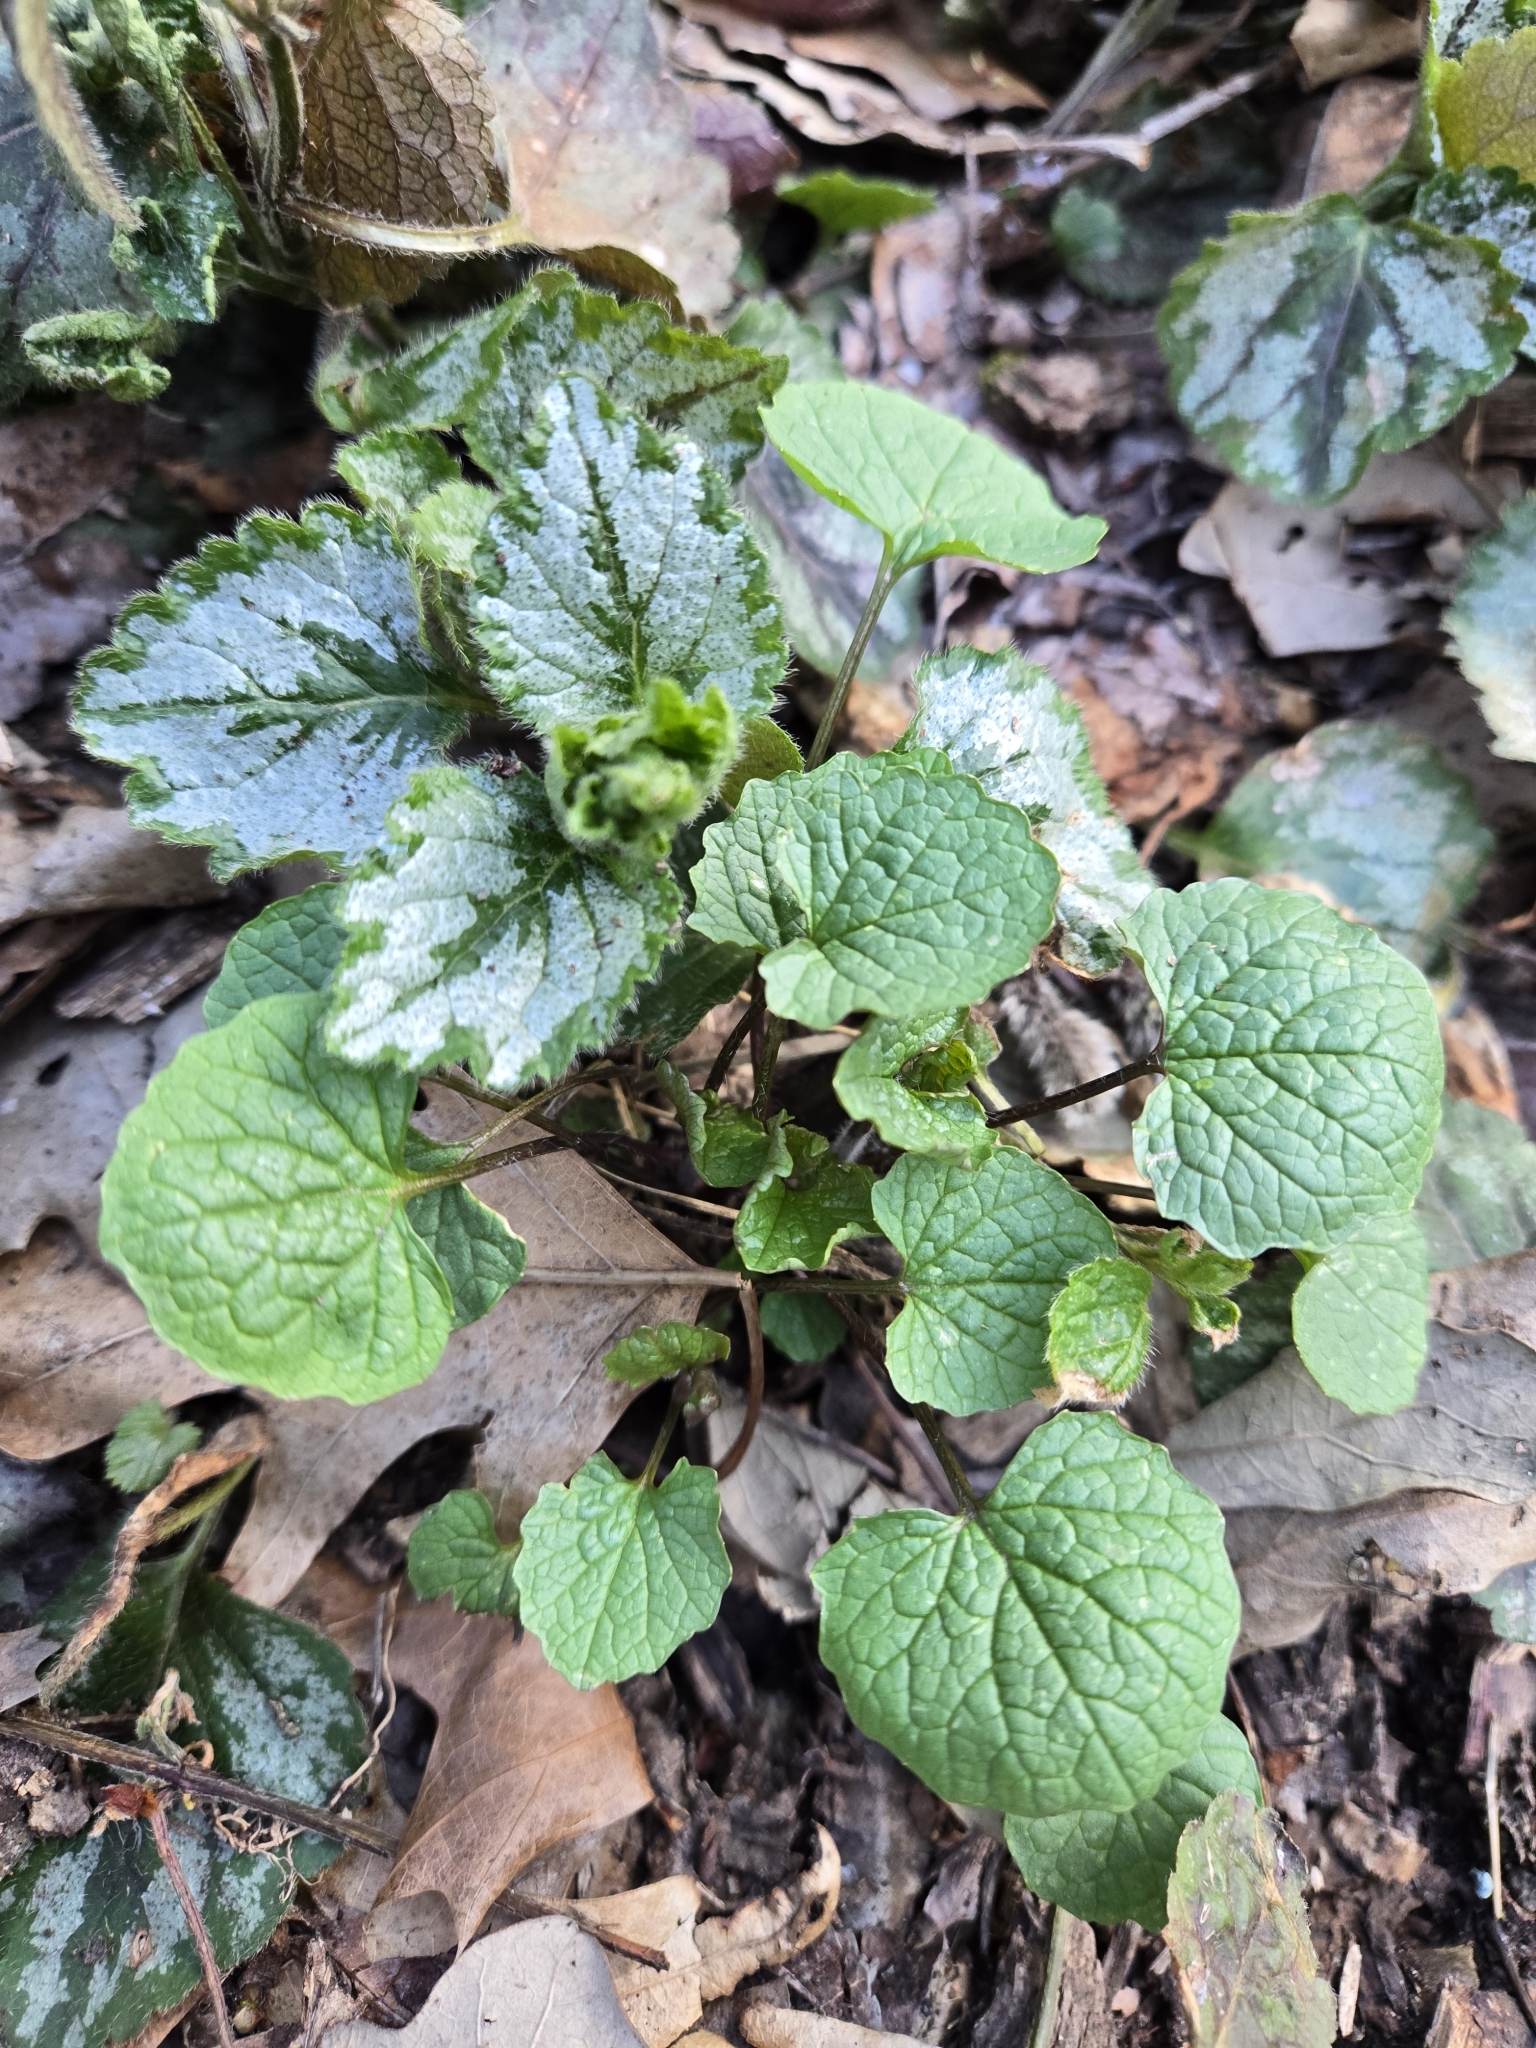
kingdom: Plantae
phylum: Tracheophyta
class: Magnoliopsida
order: Brassicales
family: Brassicaceae
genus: Alliaria
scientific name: Alliaria petiolata
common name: Garlic mustard
